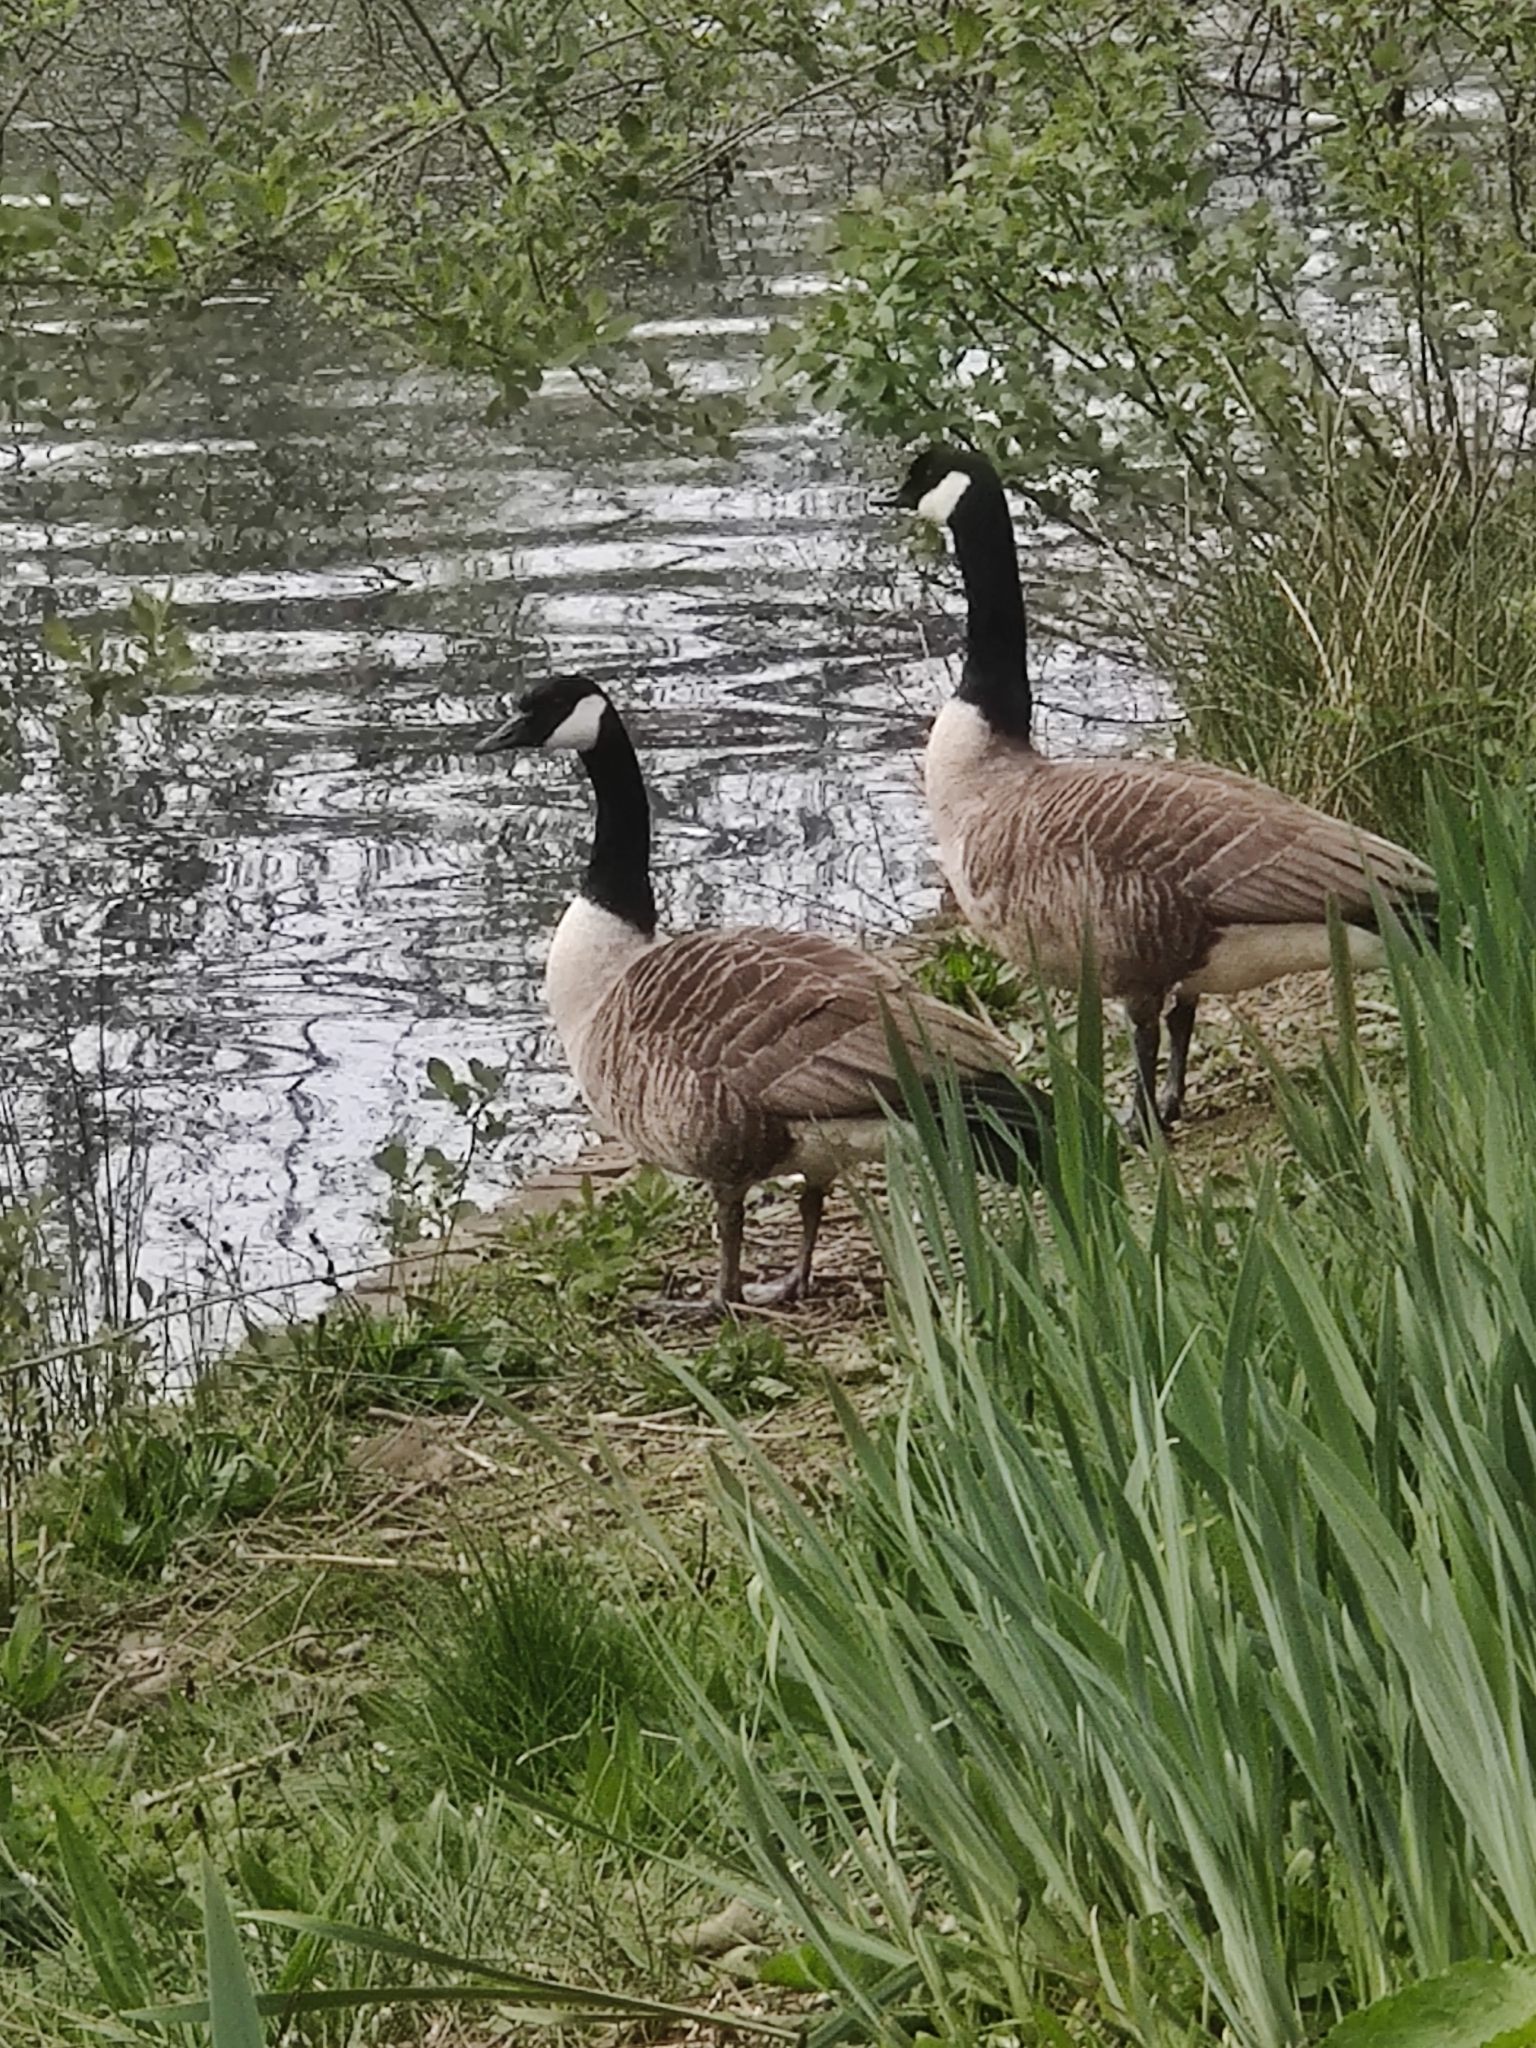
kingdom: Animalia
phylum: Chordata
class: Aves
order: Anseriformes
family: Anatidae
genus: Branta
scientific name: Branta canadensis
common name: Canada goose
